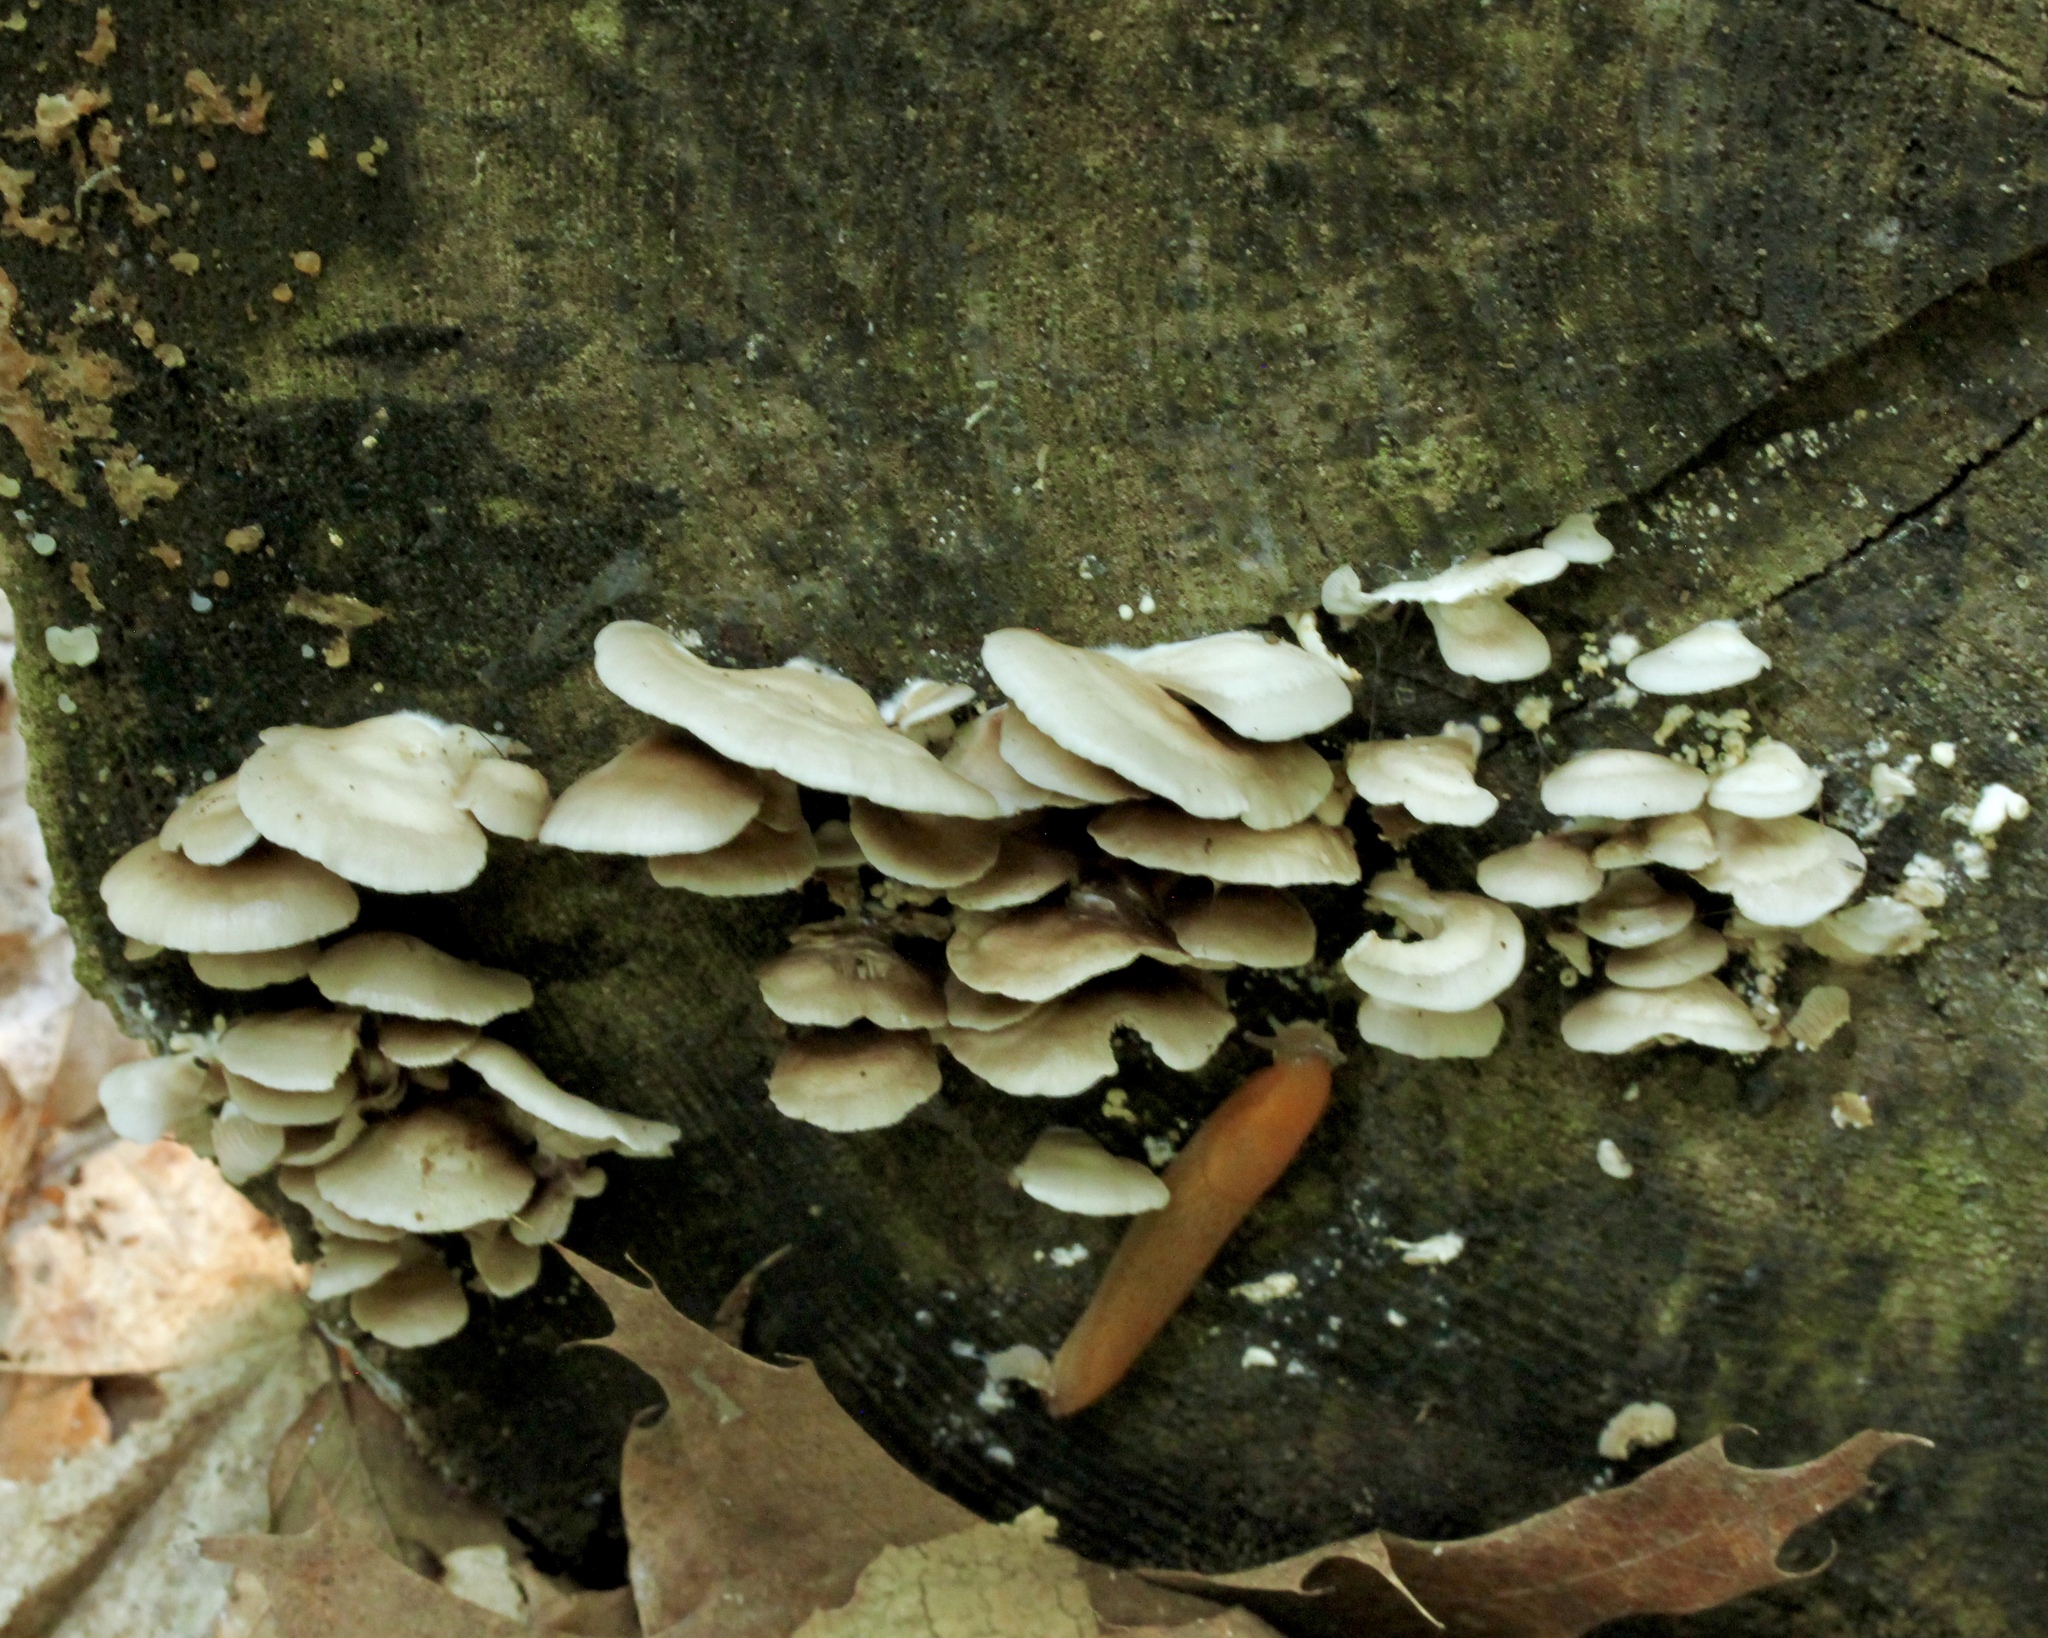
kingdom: Fungi
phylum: Basidiomycota
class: Agaricomycetes
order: Agaricales
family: Crepidotaceae
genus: Crepidotus
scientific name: Crepidotus applanatus
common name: Flat crep
